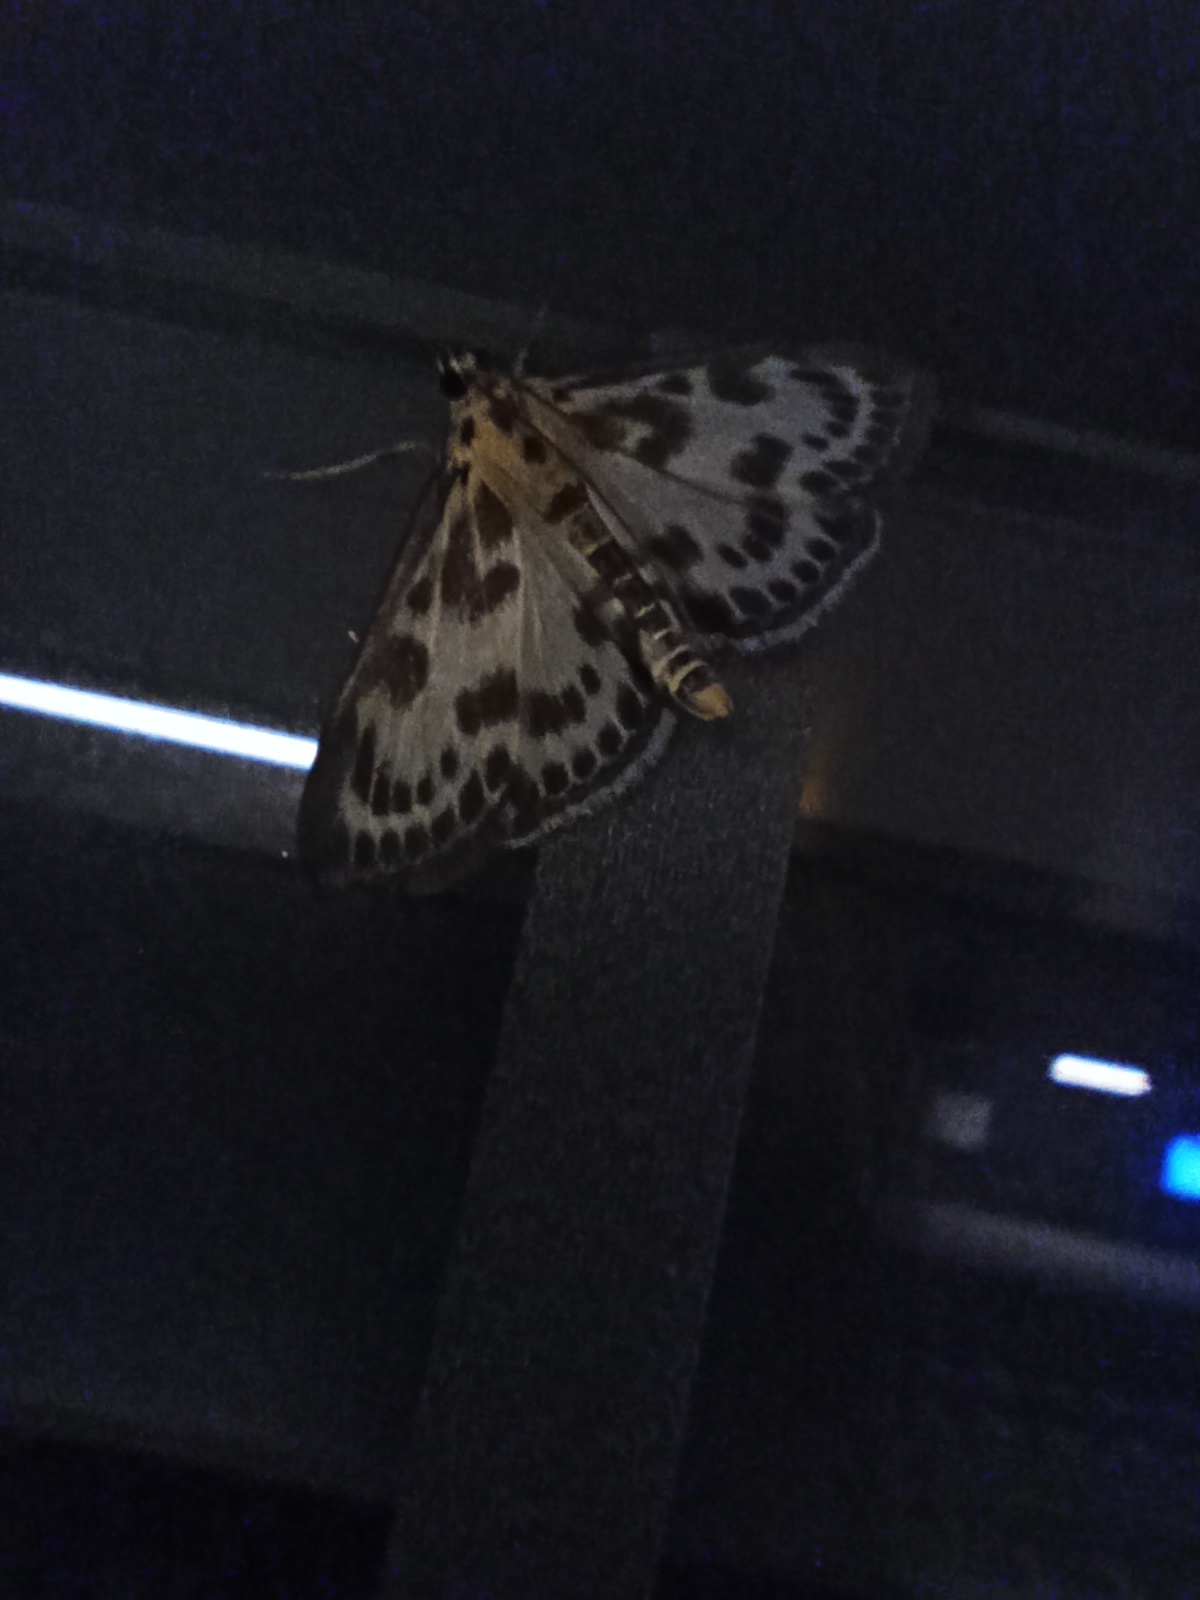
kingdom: Animalia
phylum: Arthropoda
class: Insecta
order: Lepidoptera
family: Crambidae
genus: Anania
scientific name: Anania hortulata
